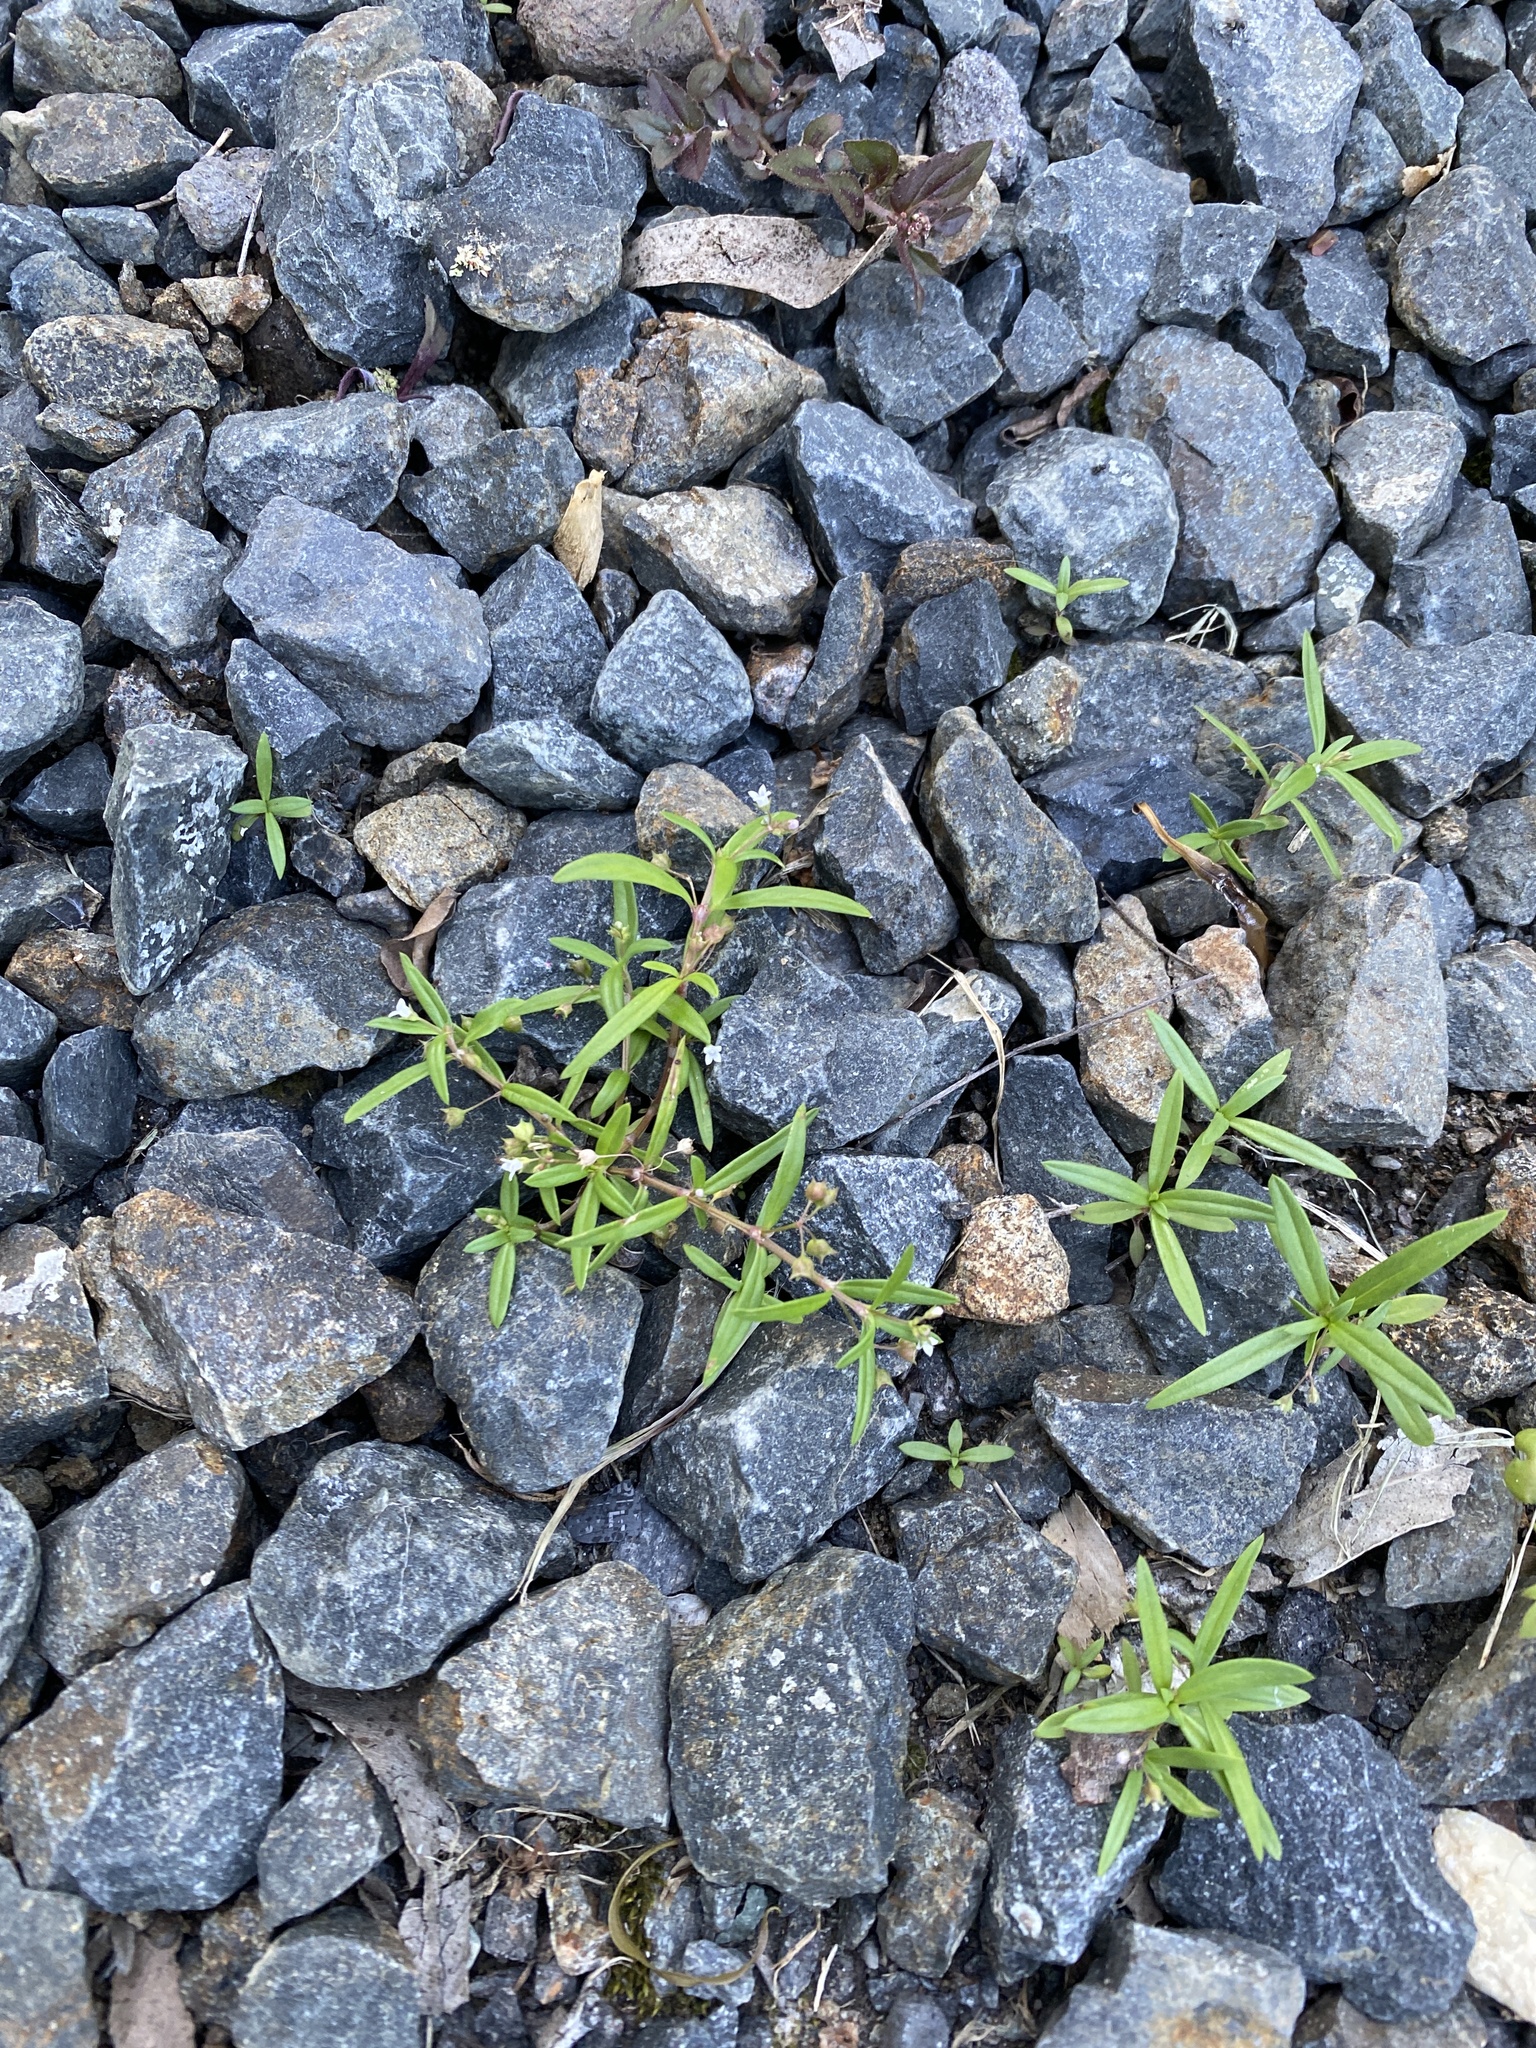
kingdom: Plantae
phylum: Tracheophyta
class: Magnoliopsida
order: Gentianales
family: Rubiaceae
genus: Oldenlandia
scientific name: Oldenlandia corymbosa
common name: Flat-top mille graines
